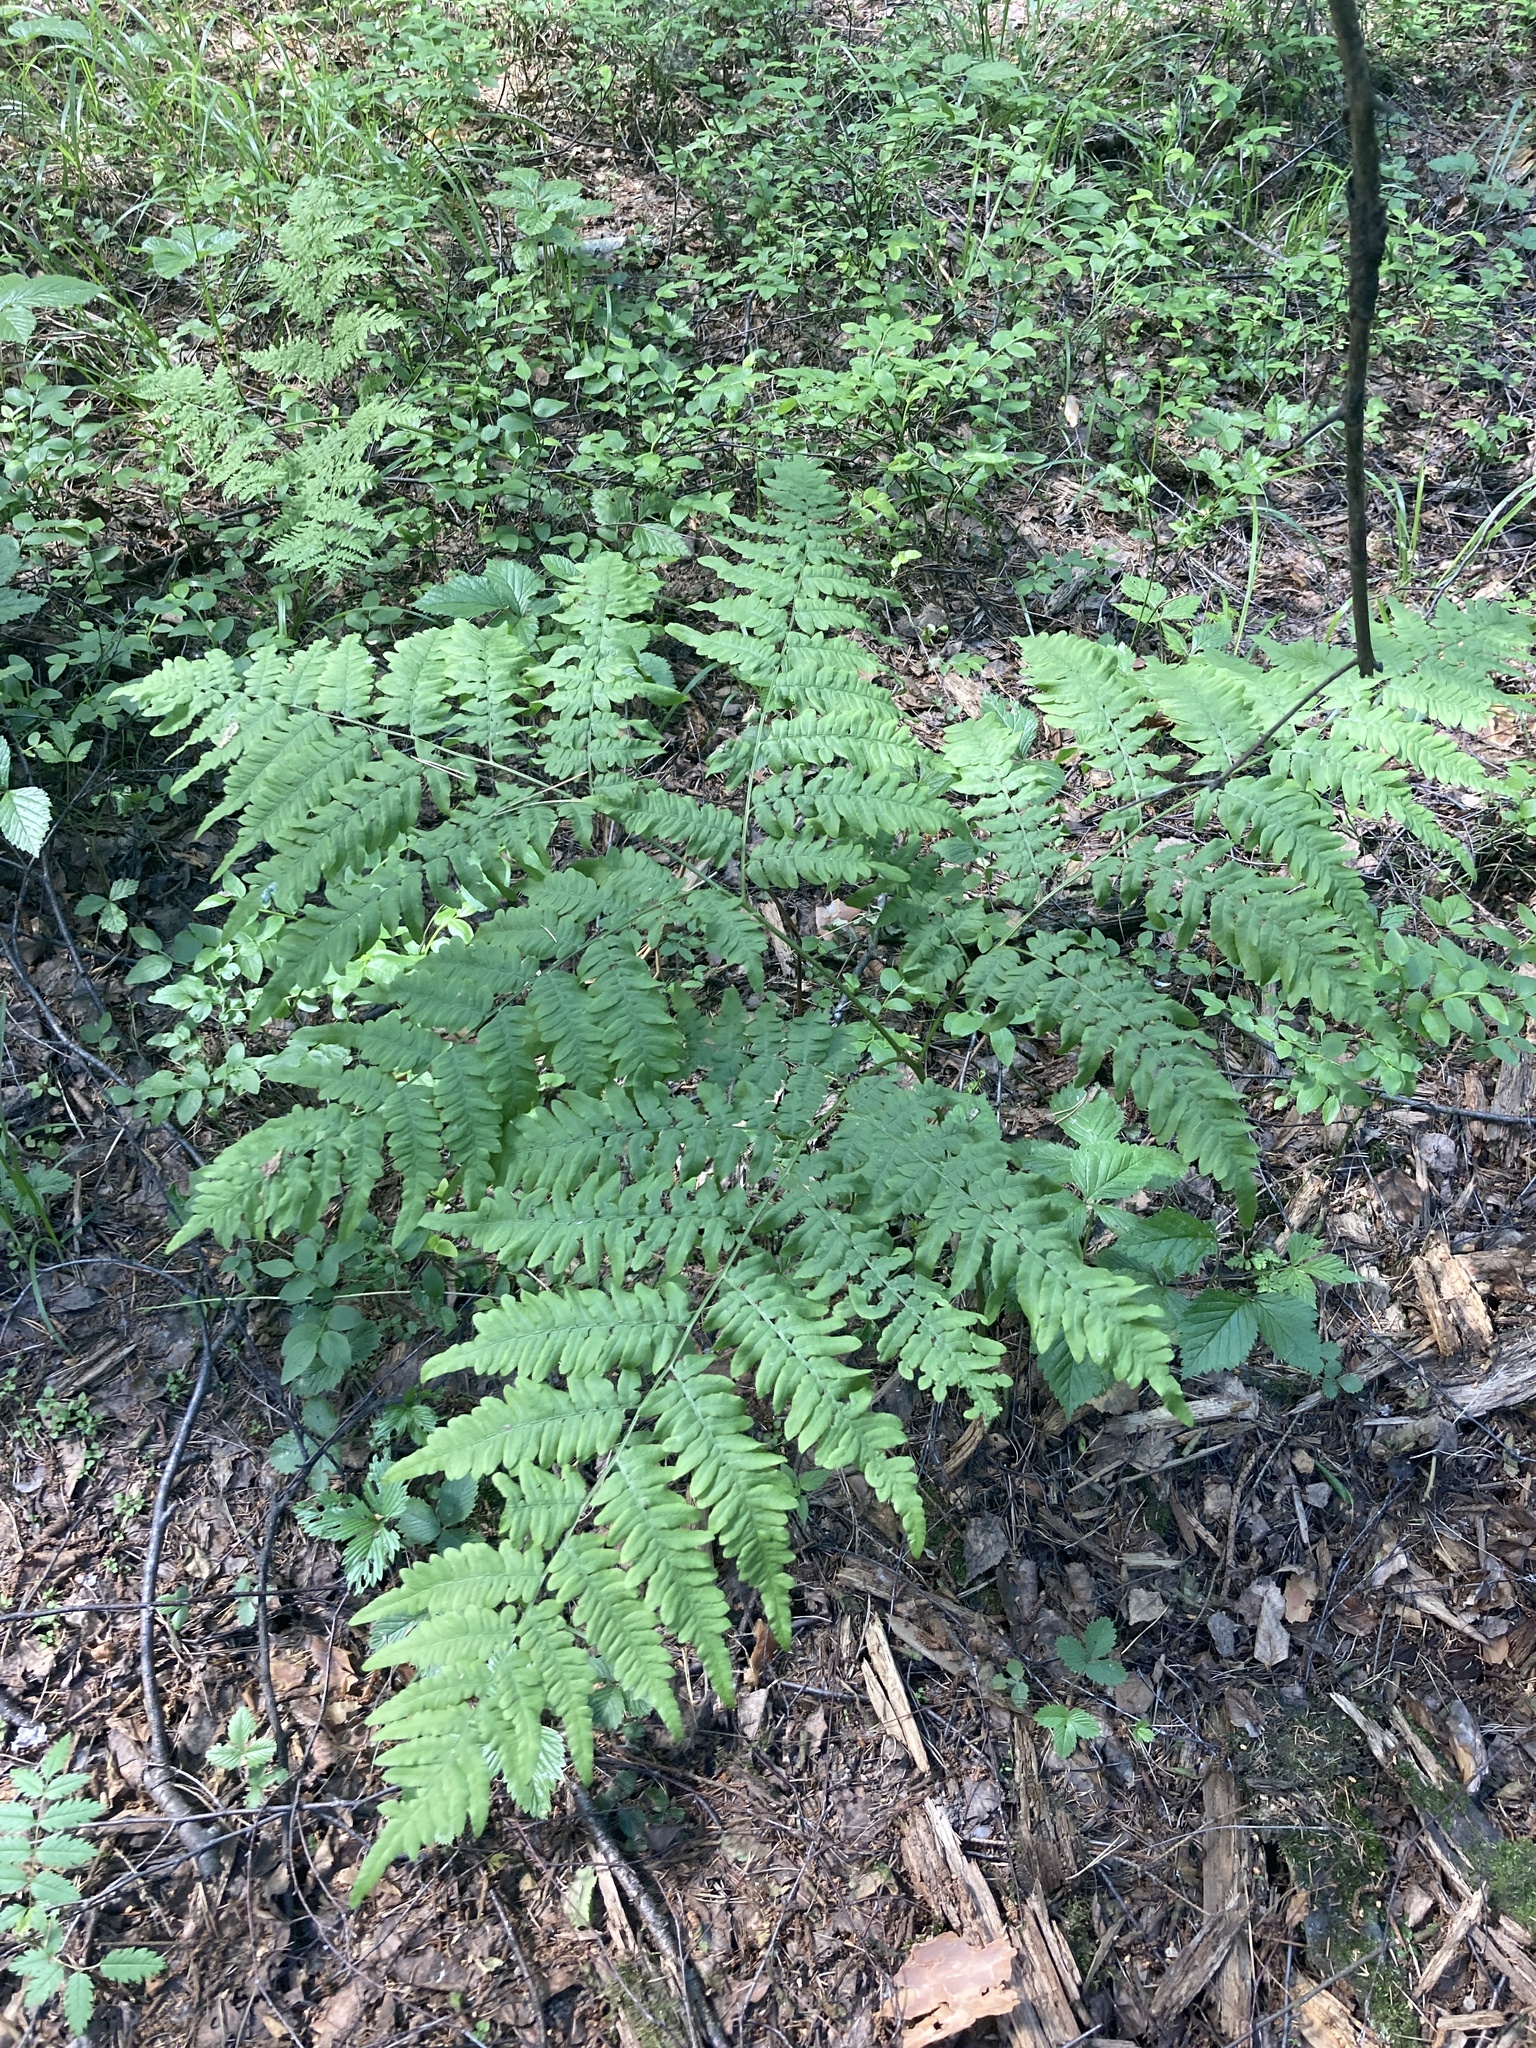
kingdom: Plantae
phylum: Tracheophyta
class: Polypodiopsida
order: Polypodiales
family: Dennstaedtiaceae
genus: Pteridium
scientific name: Pteridium aquilinum
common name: Bracken
